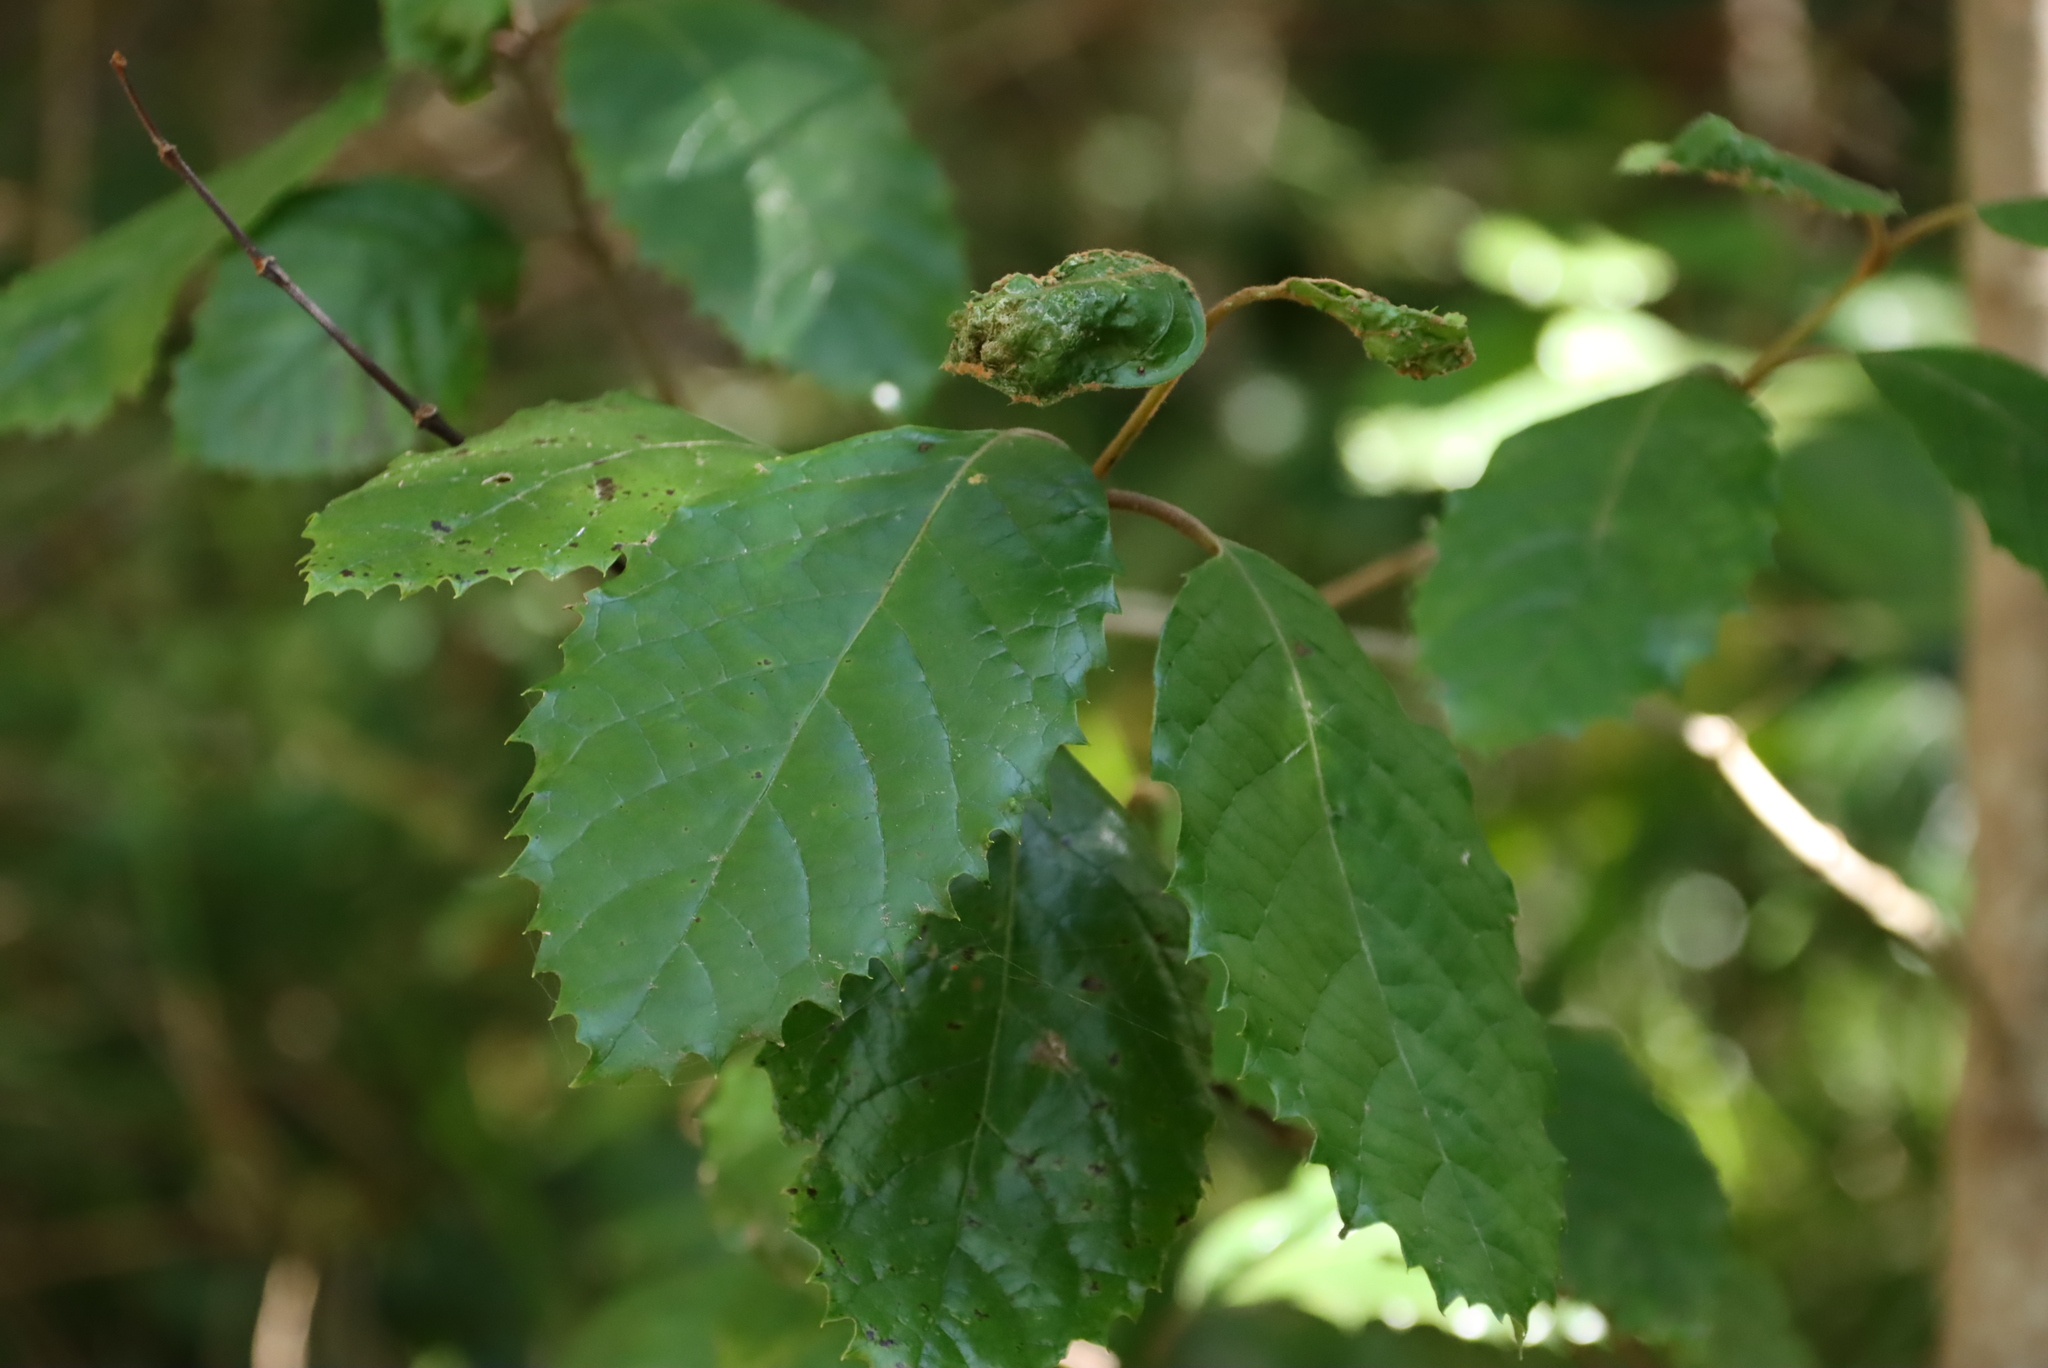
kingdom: Plantae
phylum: Tracheophyta
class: Magnoliopsida
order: Cornales
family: Curtisiaceae
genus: Curtisia
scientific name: Curtisia dentata
